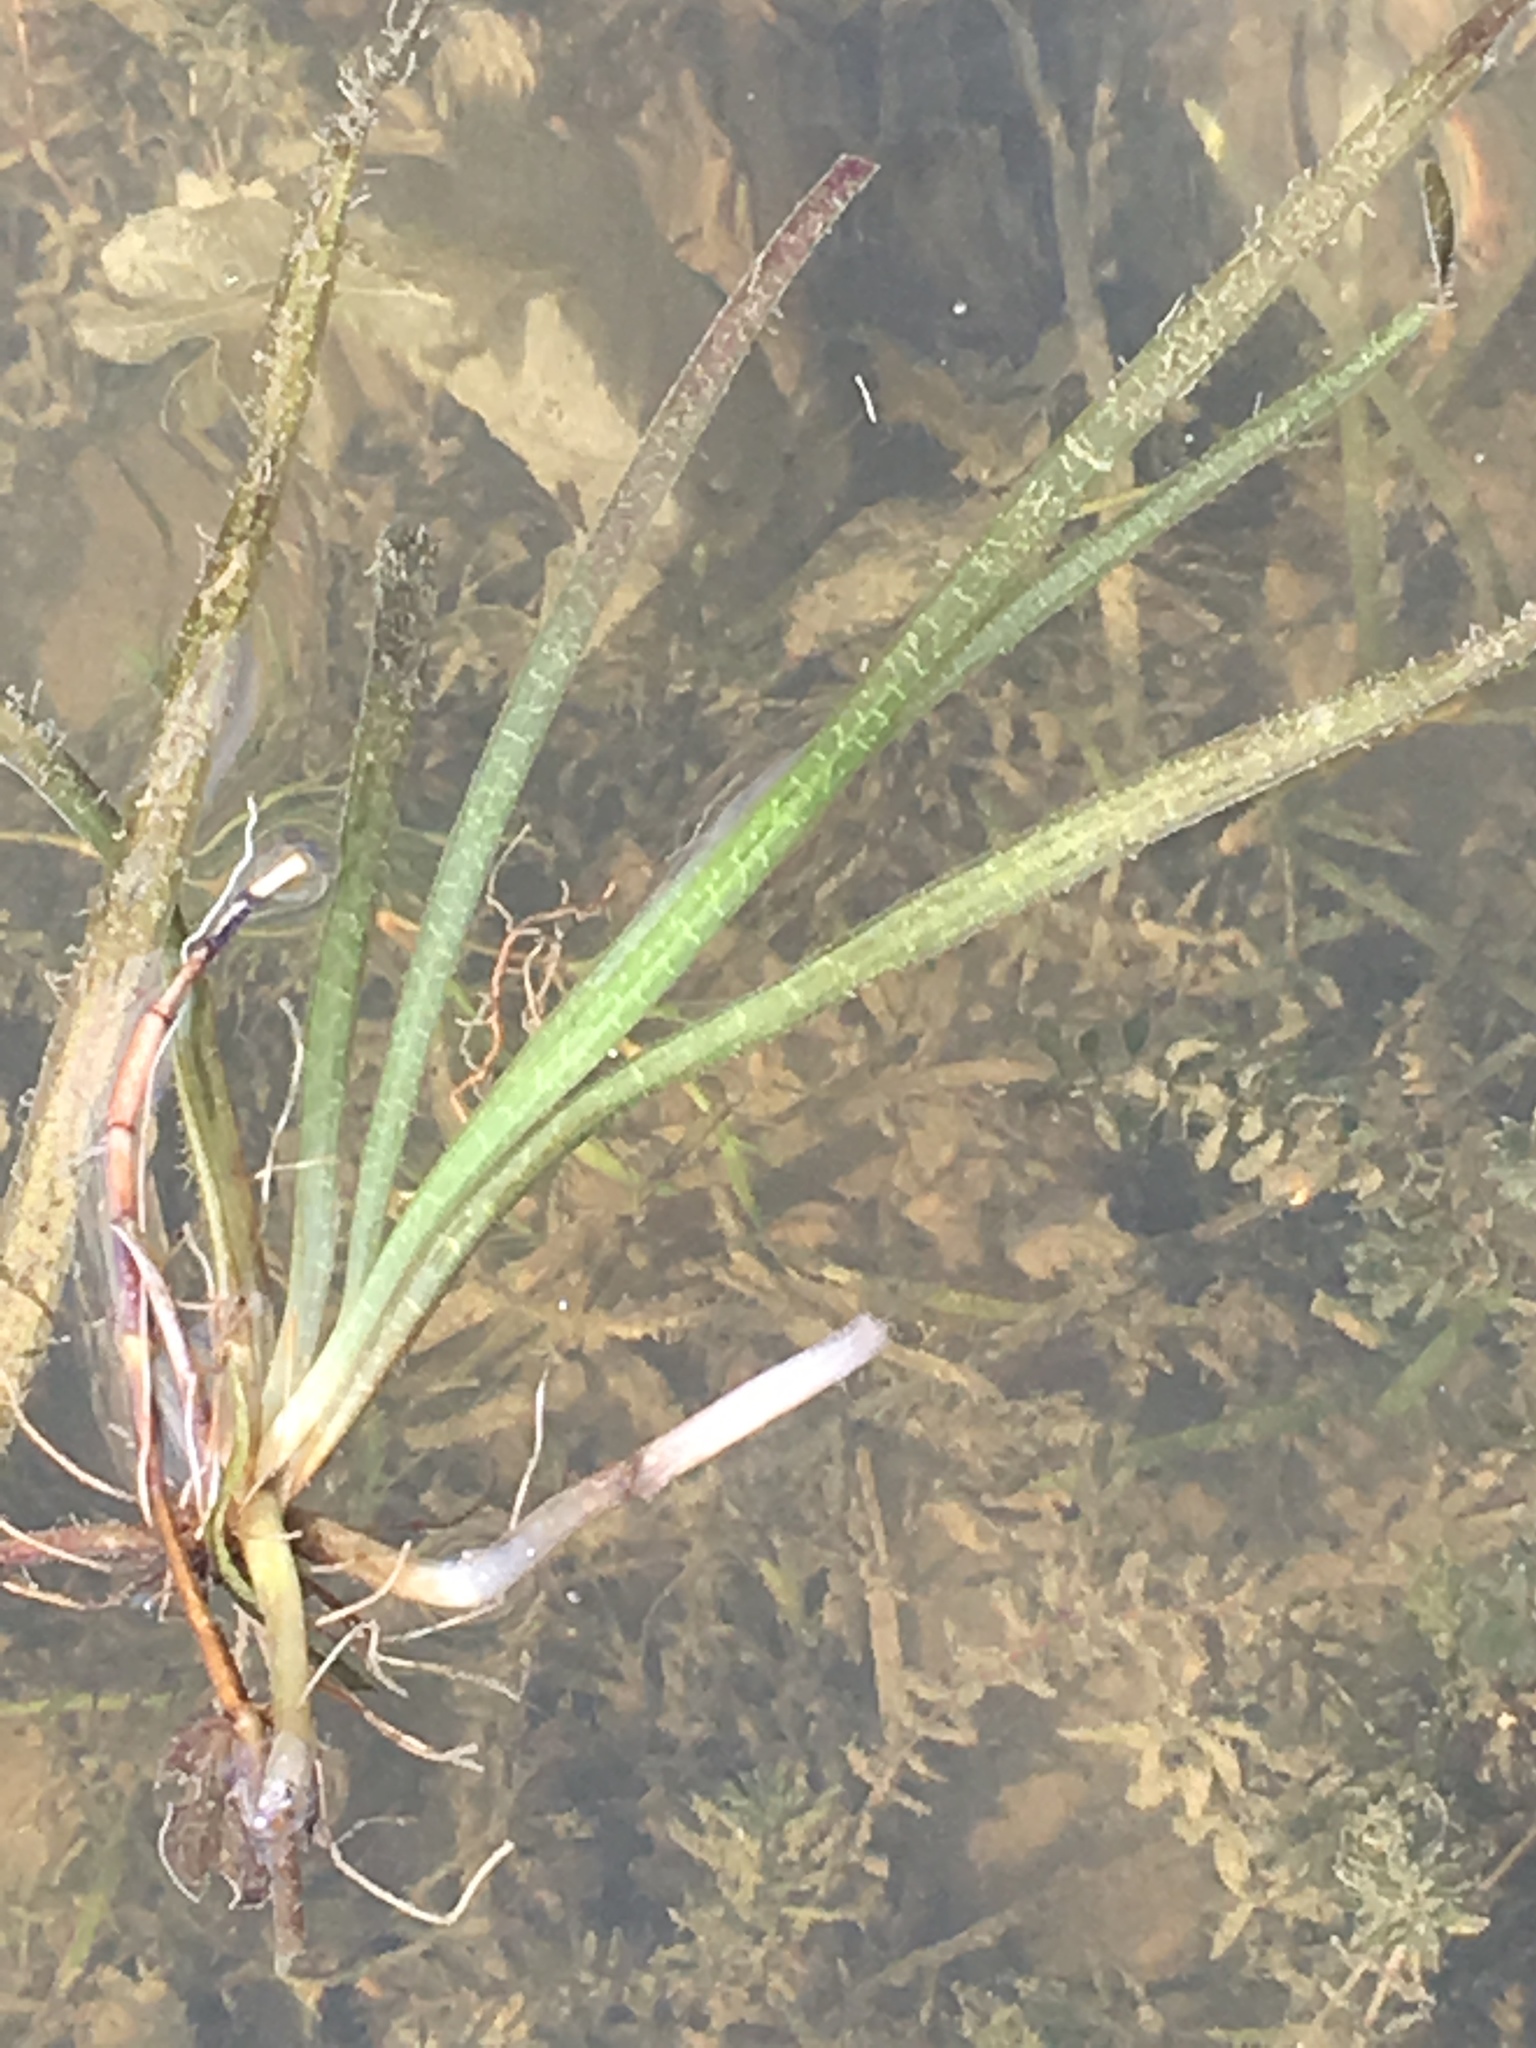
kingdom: Plantae
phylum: Tracheophyta
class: Liliopsida
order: Alismatales
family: Hydrocharitaceae
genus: Vallisneria
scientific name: Vallisneria americana
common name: American eelgrass
